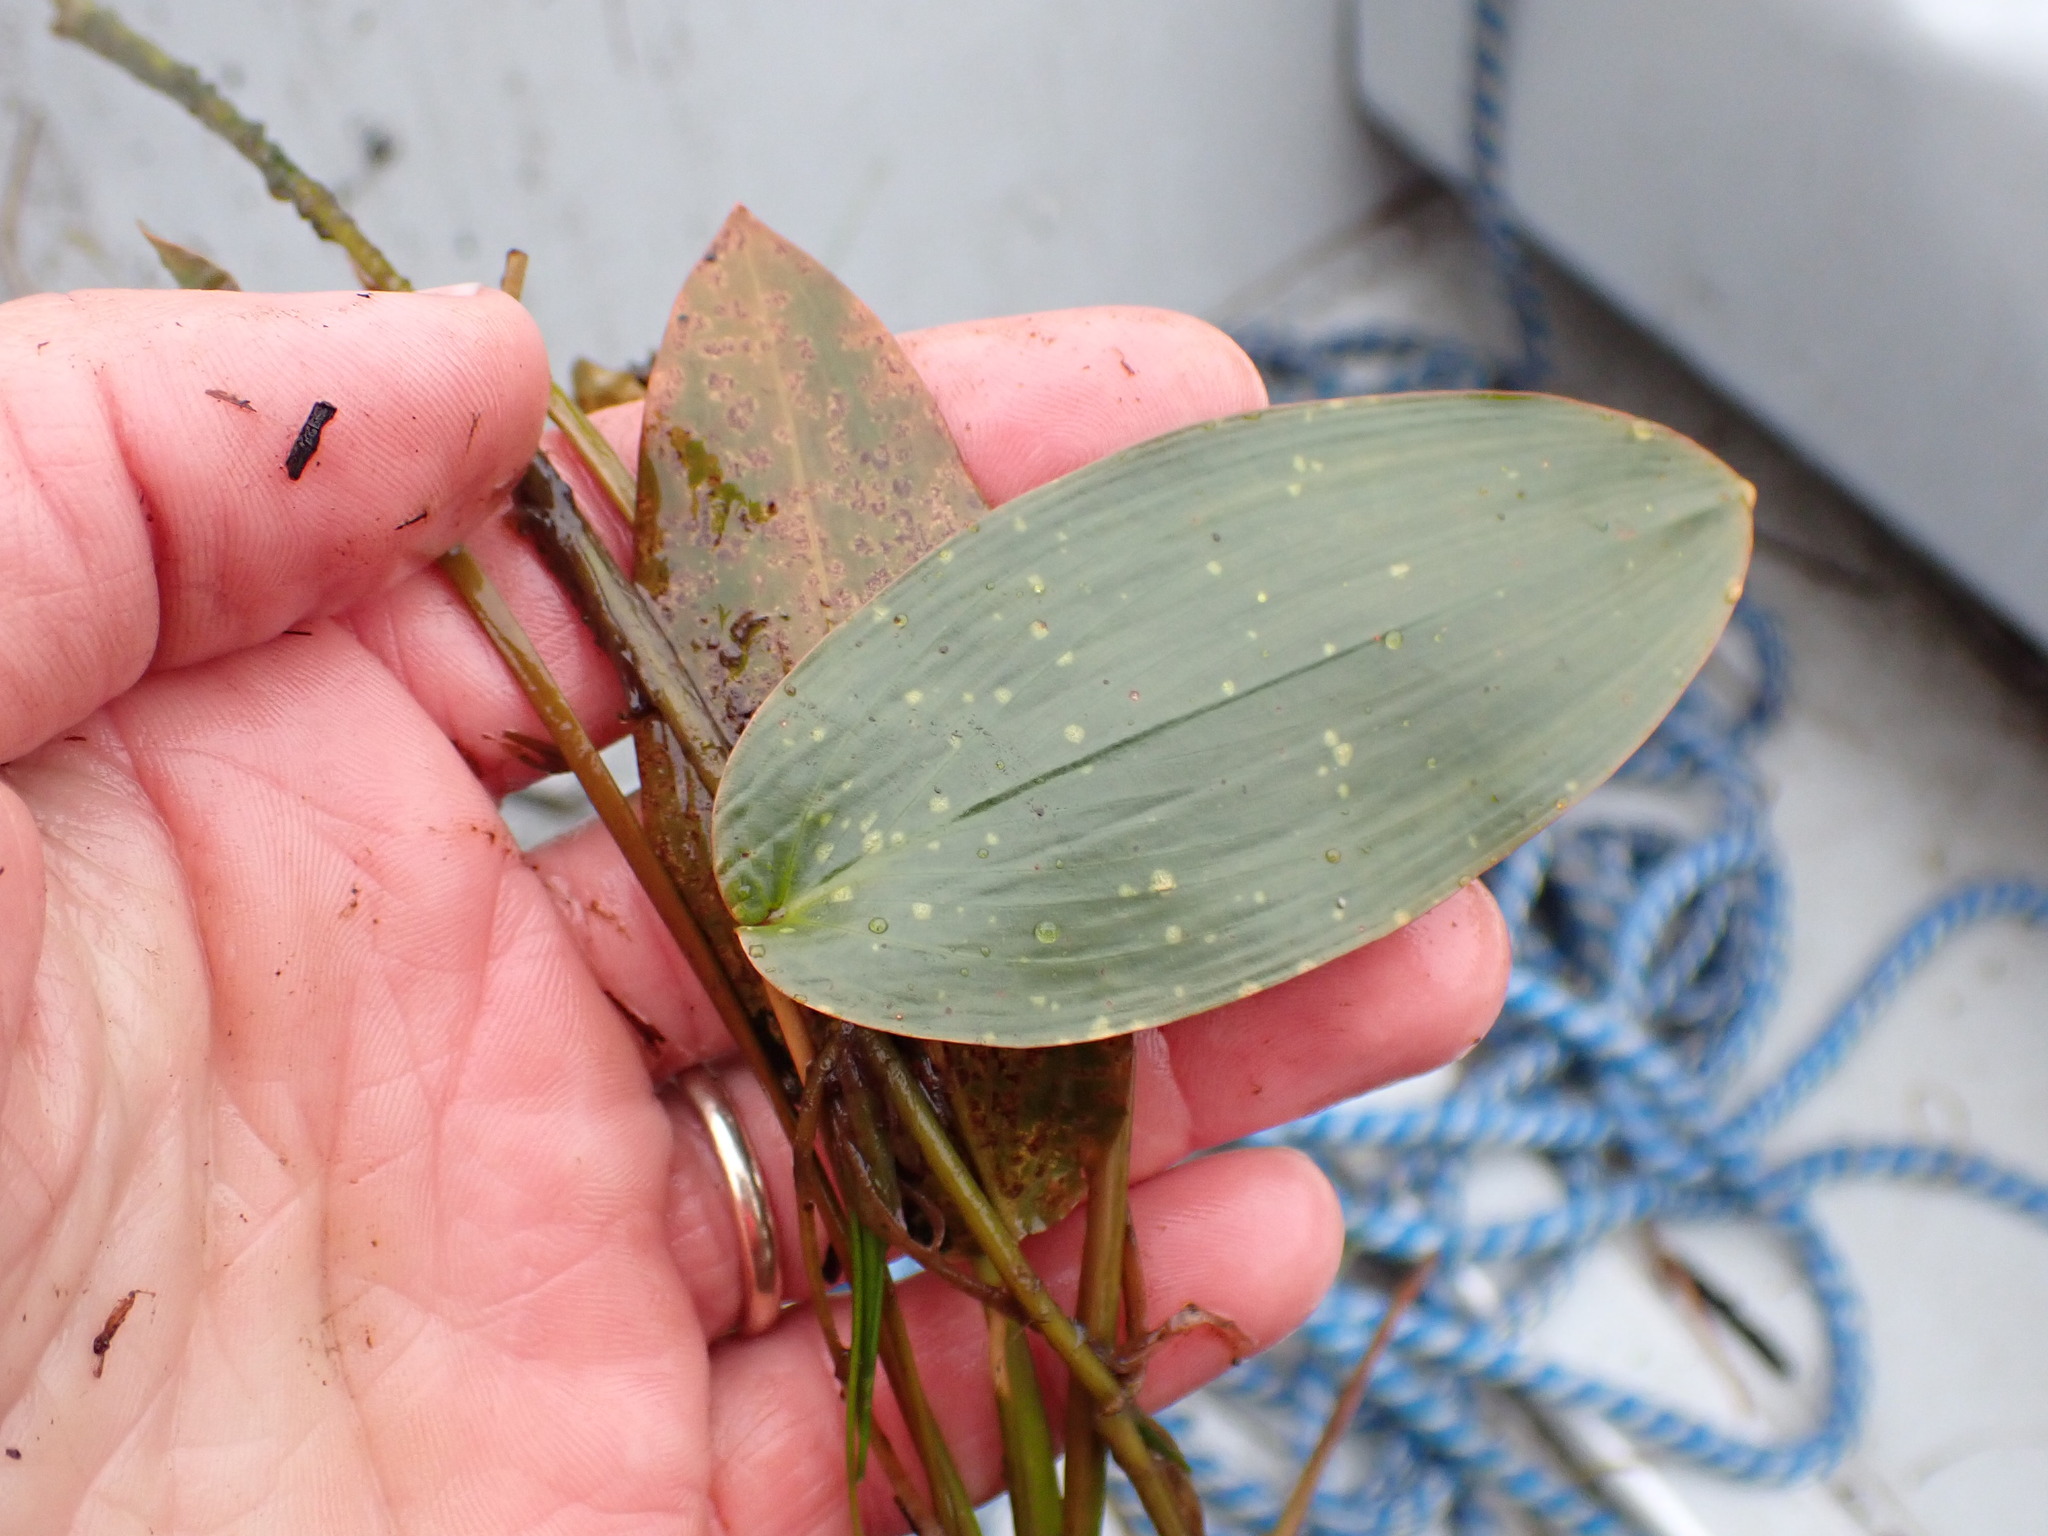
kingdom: Plantae
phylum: Tracheophyta
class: Liliopsida
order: Alismatales
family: Potamogetonaceae
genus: Potamogeton
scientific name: Potamogeton natans
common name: Broad-leaved pondweed
